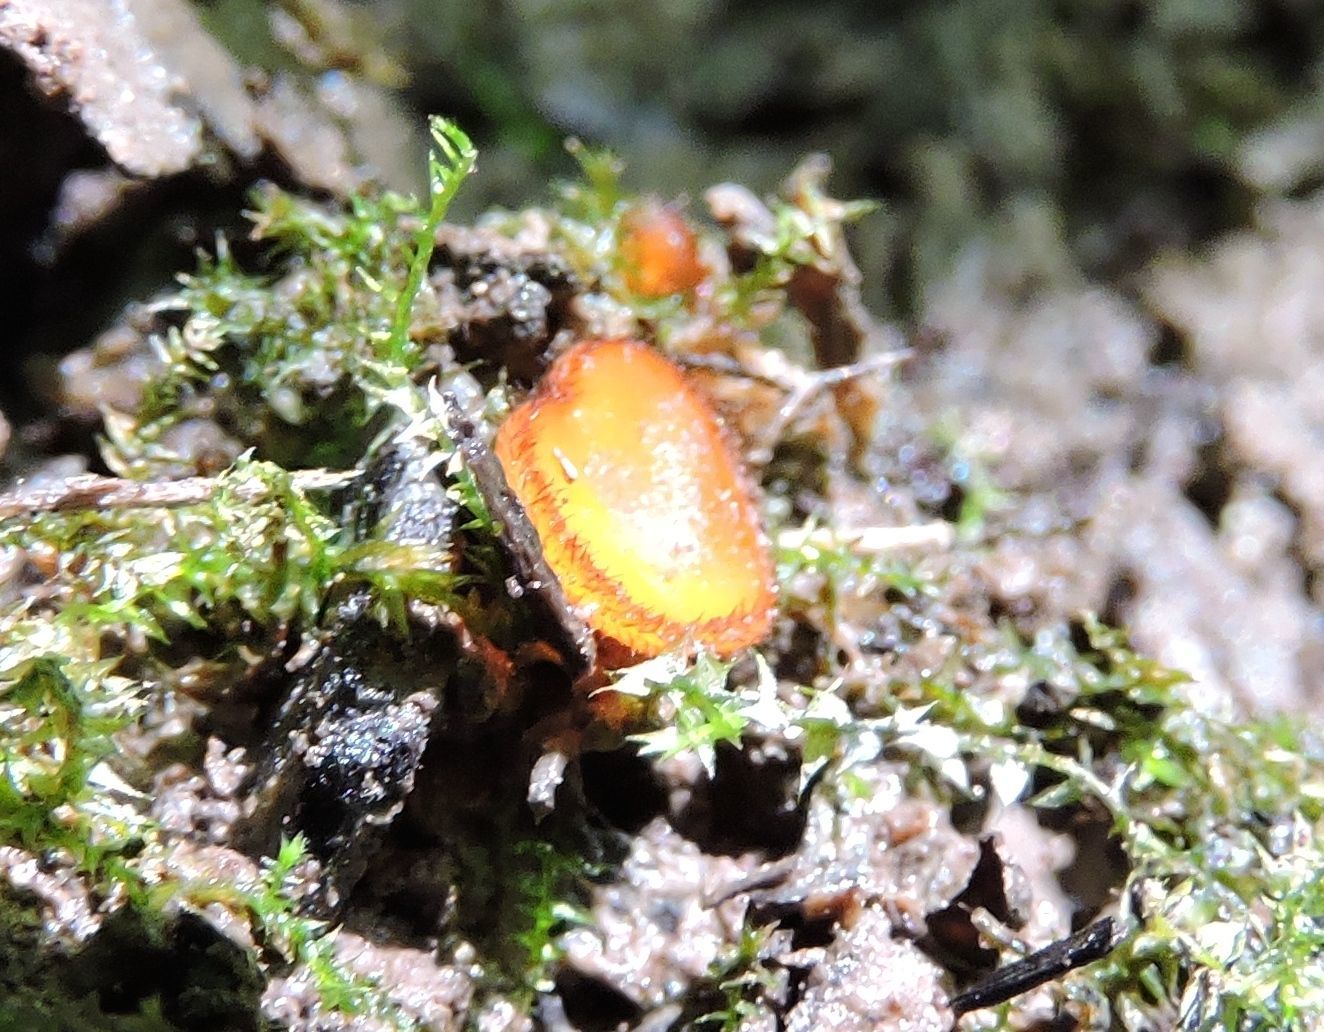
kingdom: Fungi
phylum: Ascomycota
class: Pezizomycetes
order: Pezizales
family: Pyronemataceae
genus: Scutellinia
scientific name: Scutellinia umbrorum
